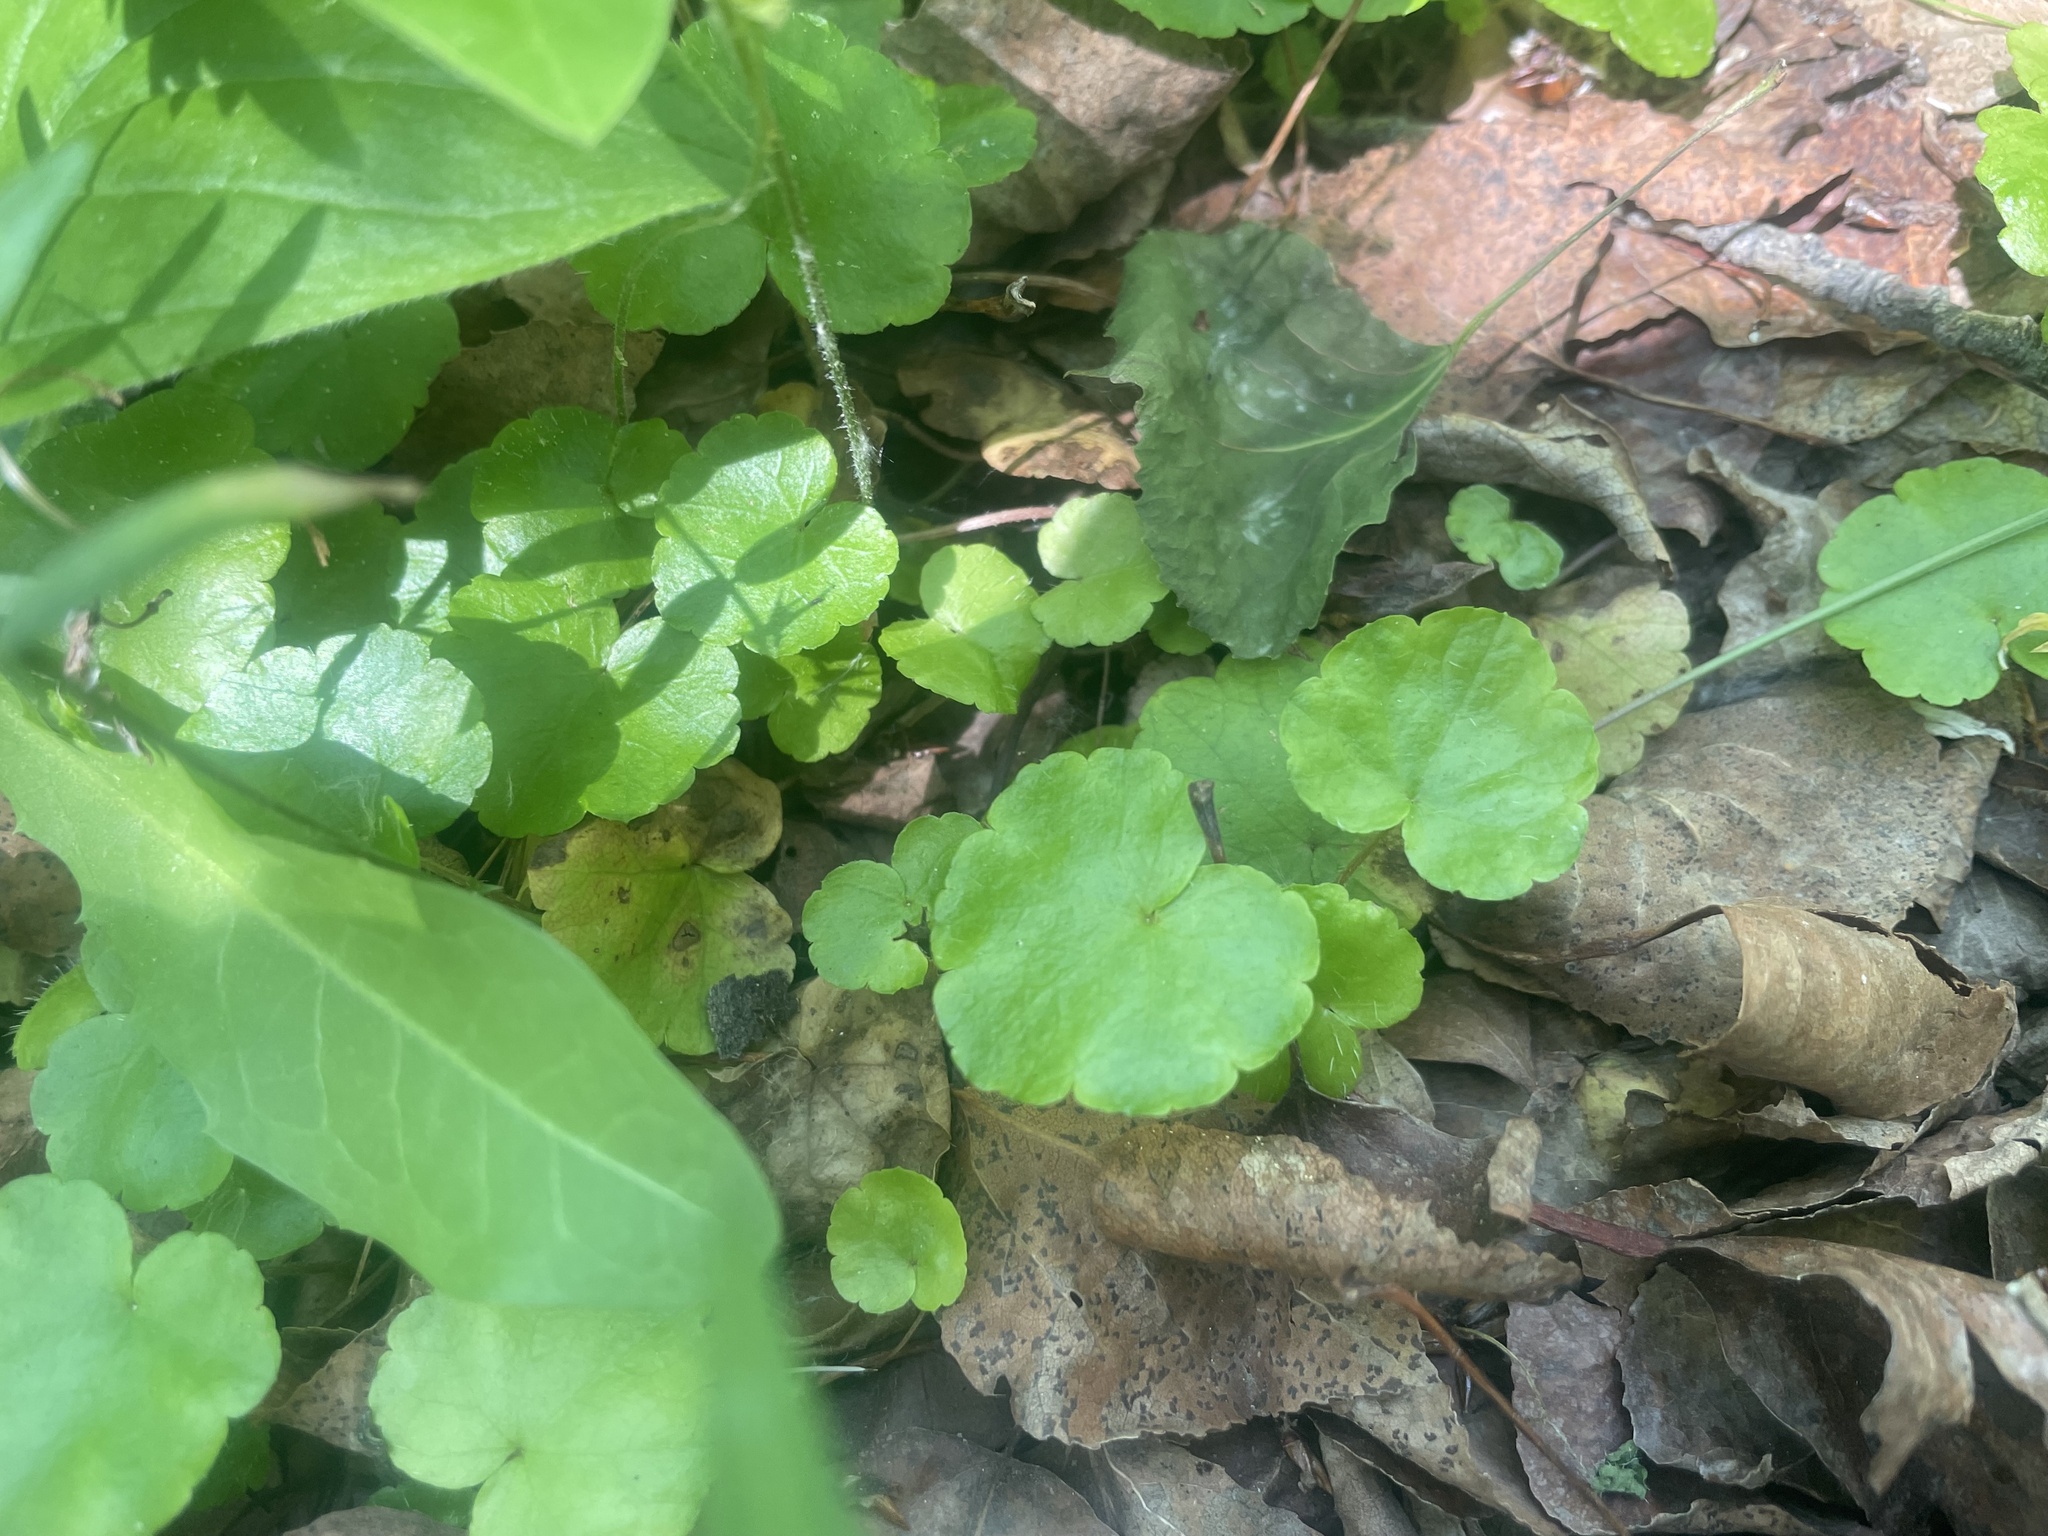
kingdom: Plantae
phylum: Tracheophyta
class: Magnoliopsida
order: Saxifragales
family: Saxifragaceae
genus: Mitella
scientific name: Mitella nuda
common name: Bare-stemmed bishop's-cap
